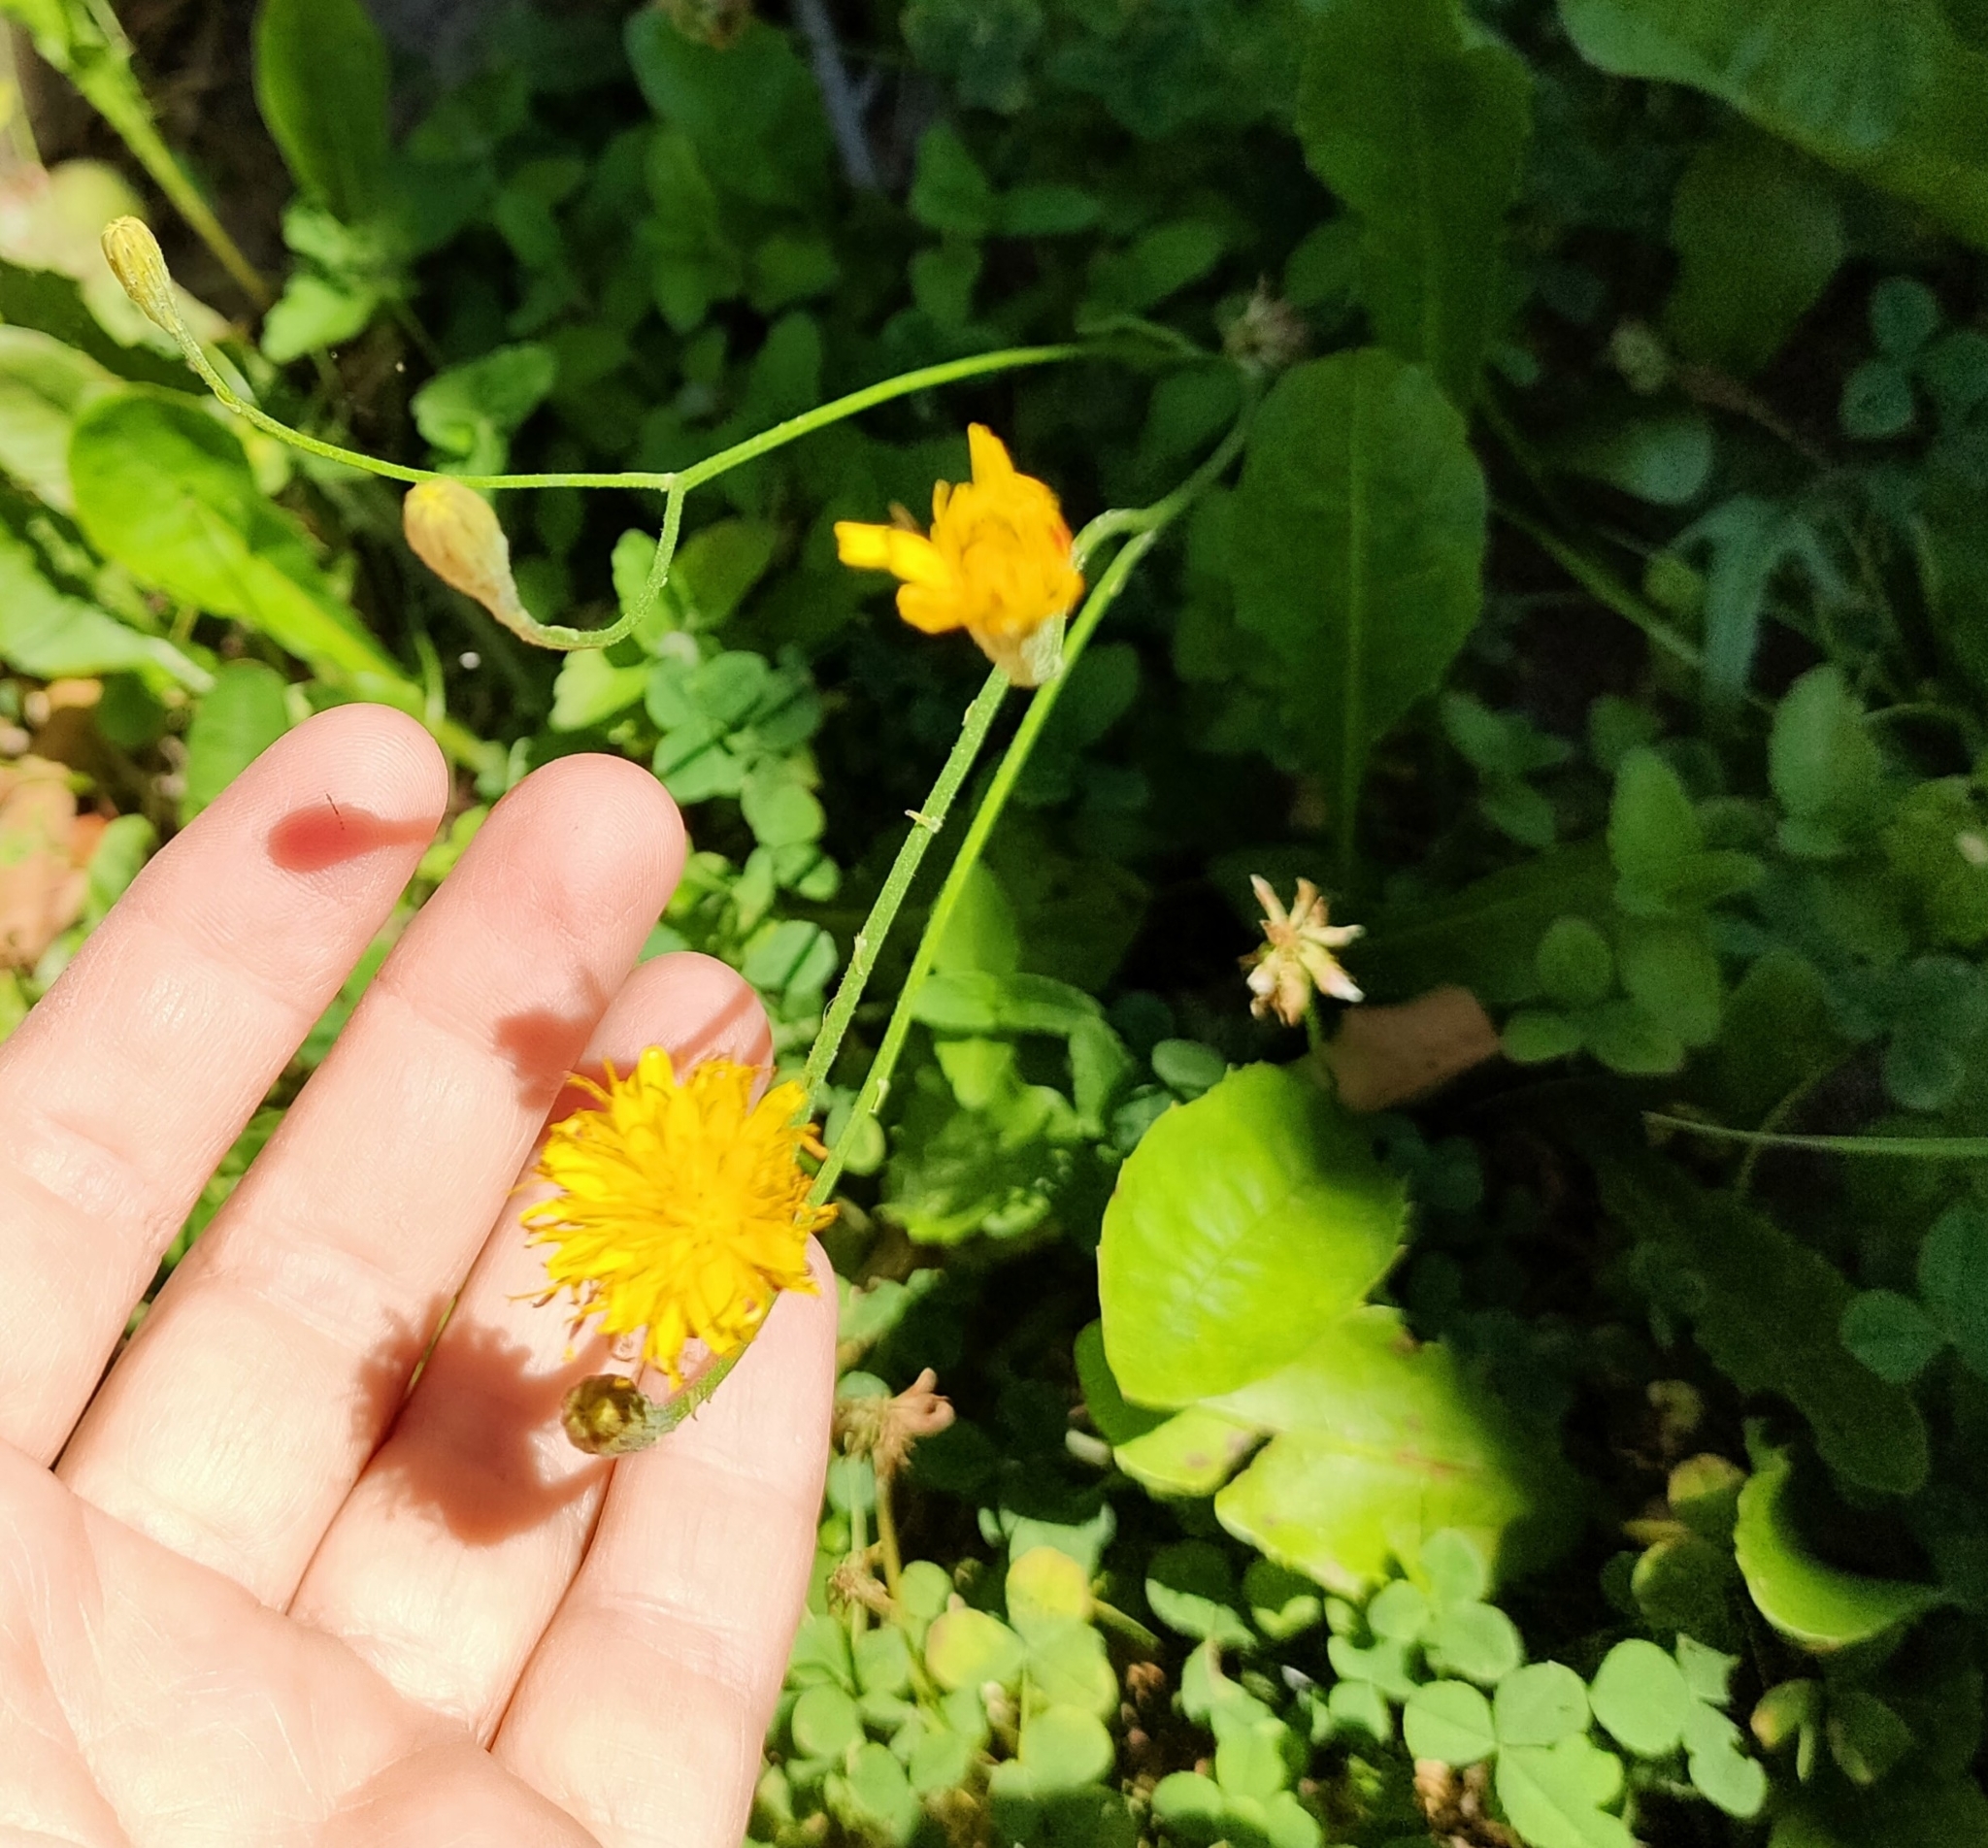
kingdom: Plantae
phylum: Tracheophyta
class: Magnoliopsida
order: Asterales
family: Asteraceae
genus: Scorzoneroides
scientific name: Scorzoneroides autumnalis
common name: Autumn hawkbit
